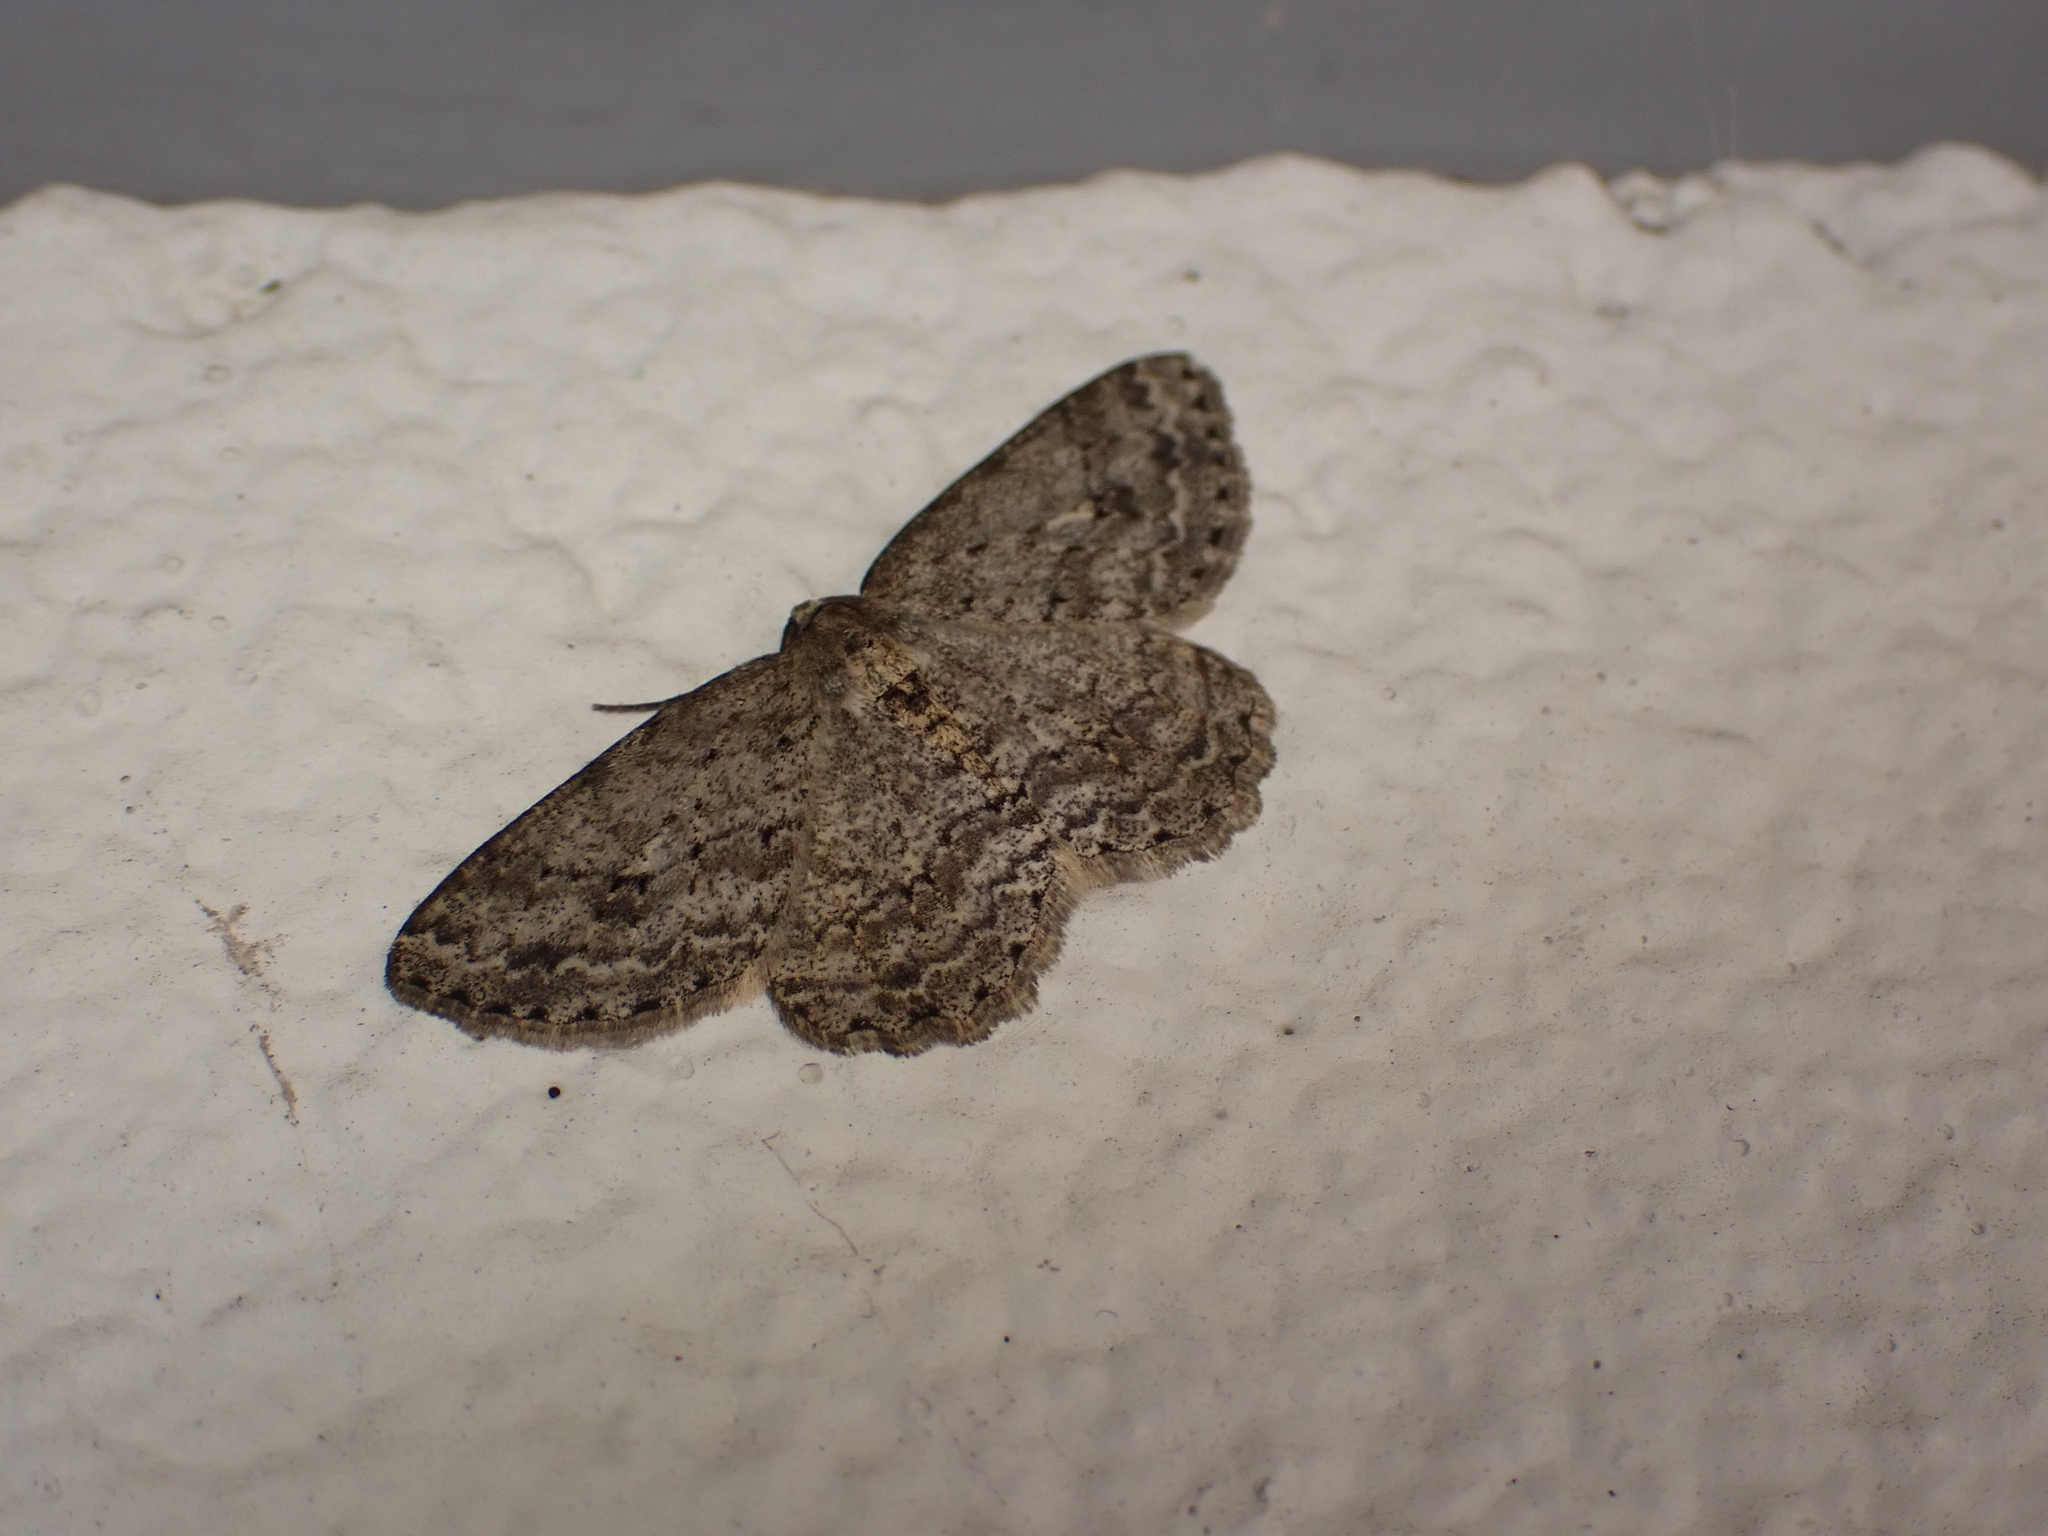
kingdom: Animalia
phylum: Arthropoda
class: Insecta
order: Lepidoptera
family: Geometridae
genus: Ectropis
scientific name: Ectropis crepuscularia
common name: Engrailed
